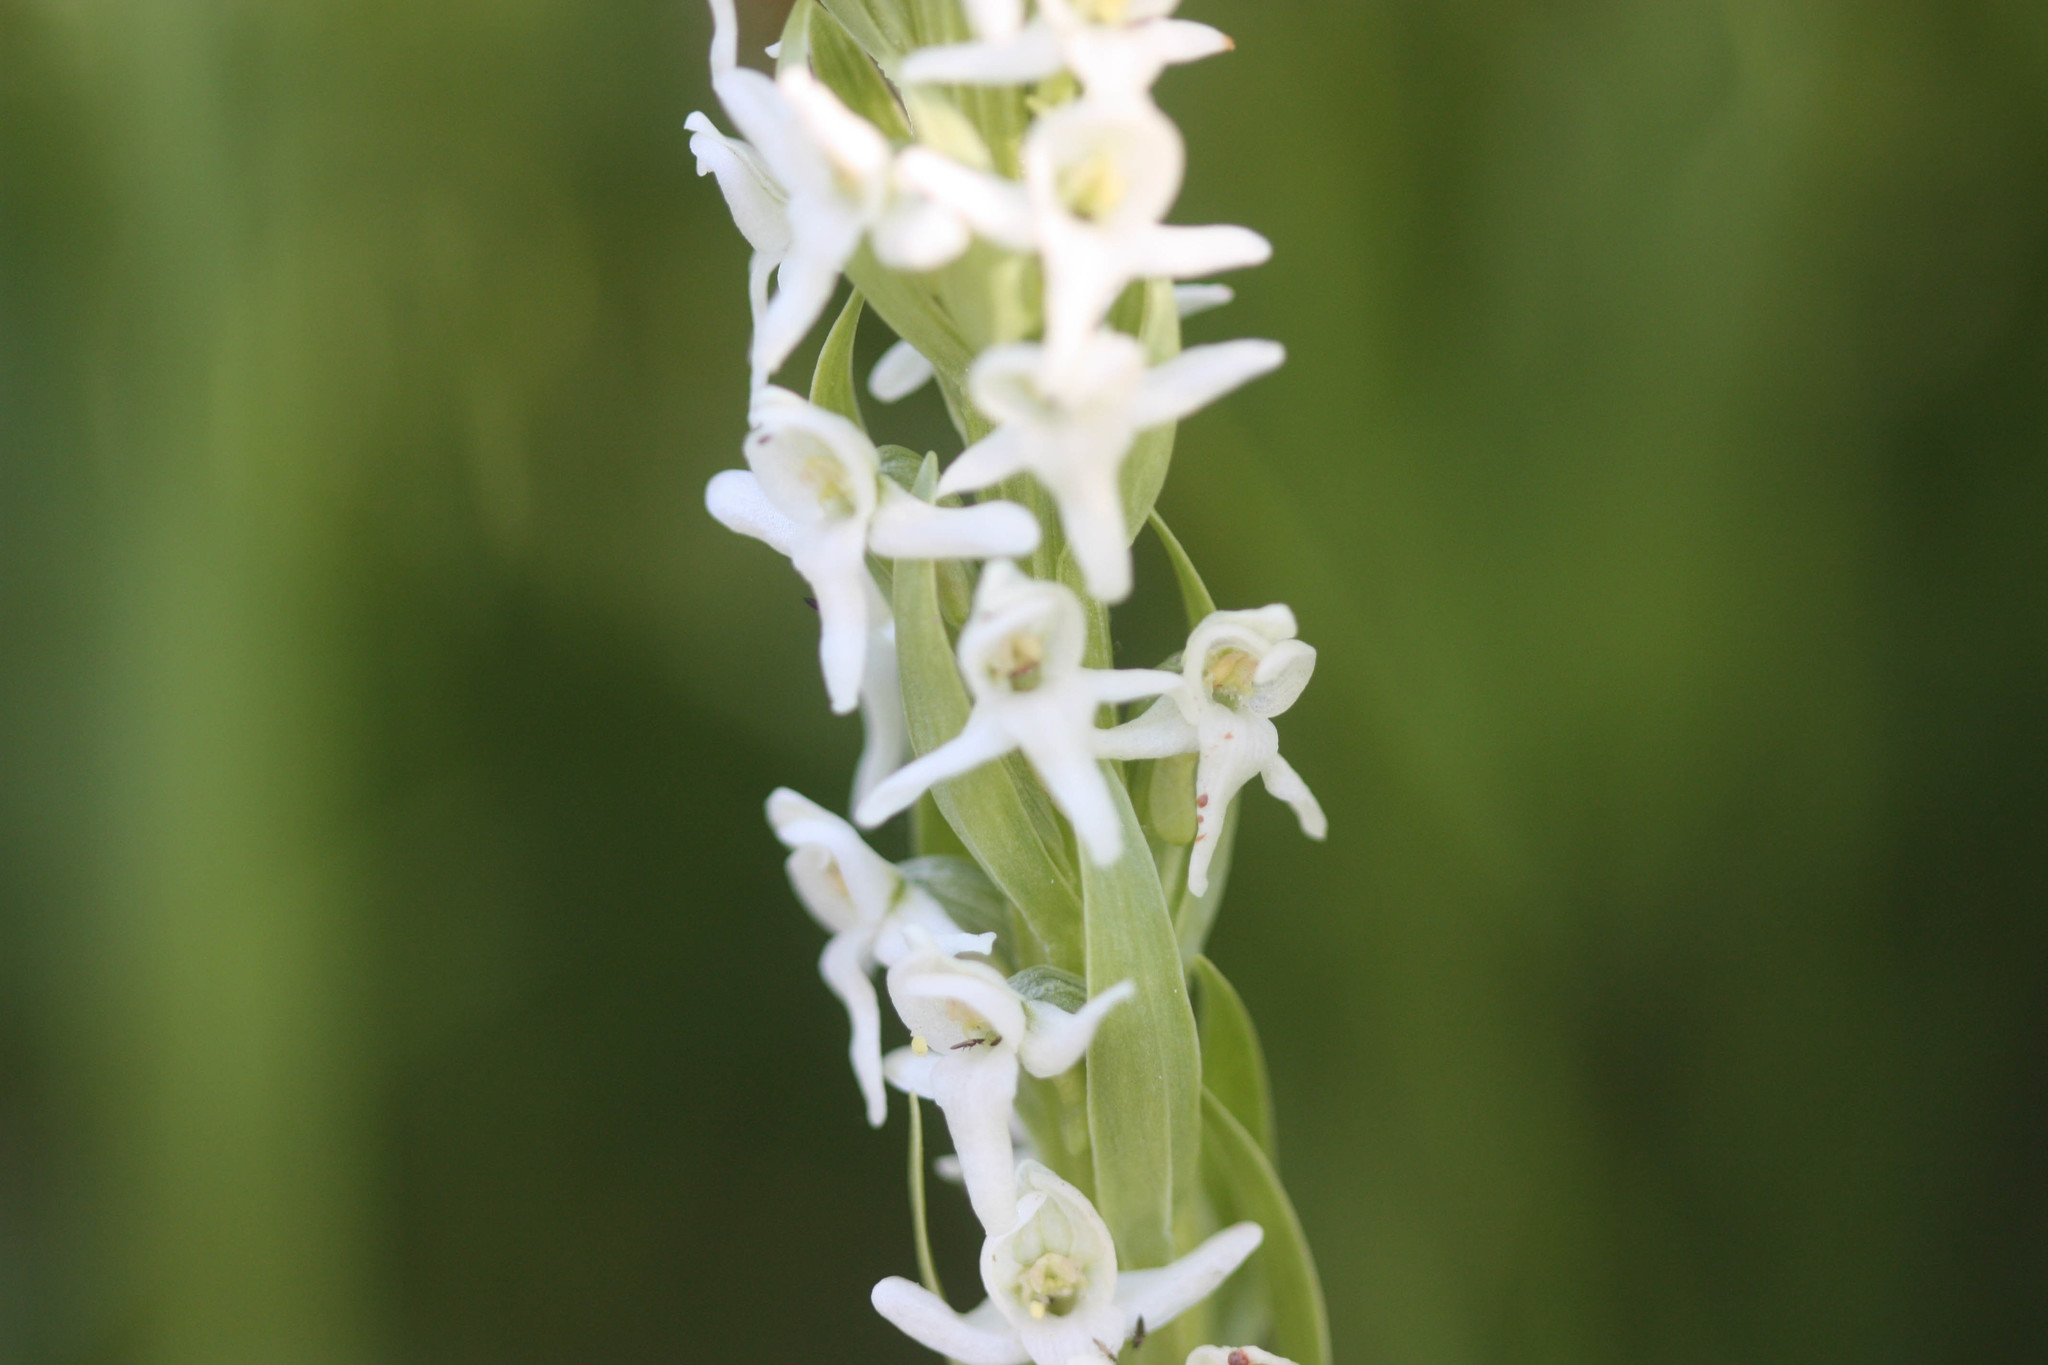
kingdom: Plantae
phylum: Tracheophyta
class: Liliopsida
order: Asparagales
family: Orchidaceae
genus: Platanthera
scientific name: Platanthera dilatata
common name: Bog candles
